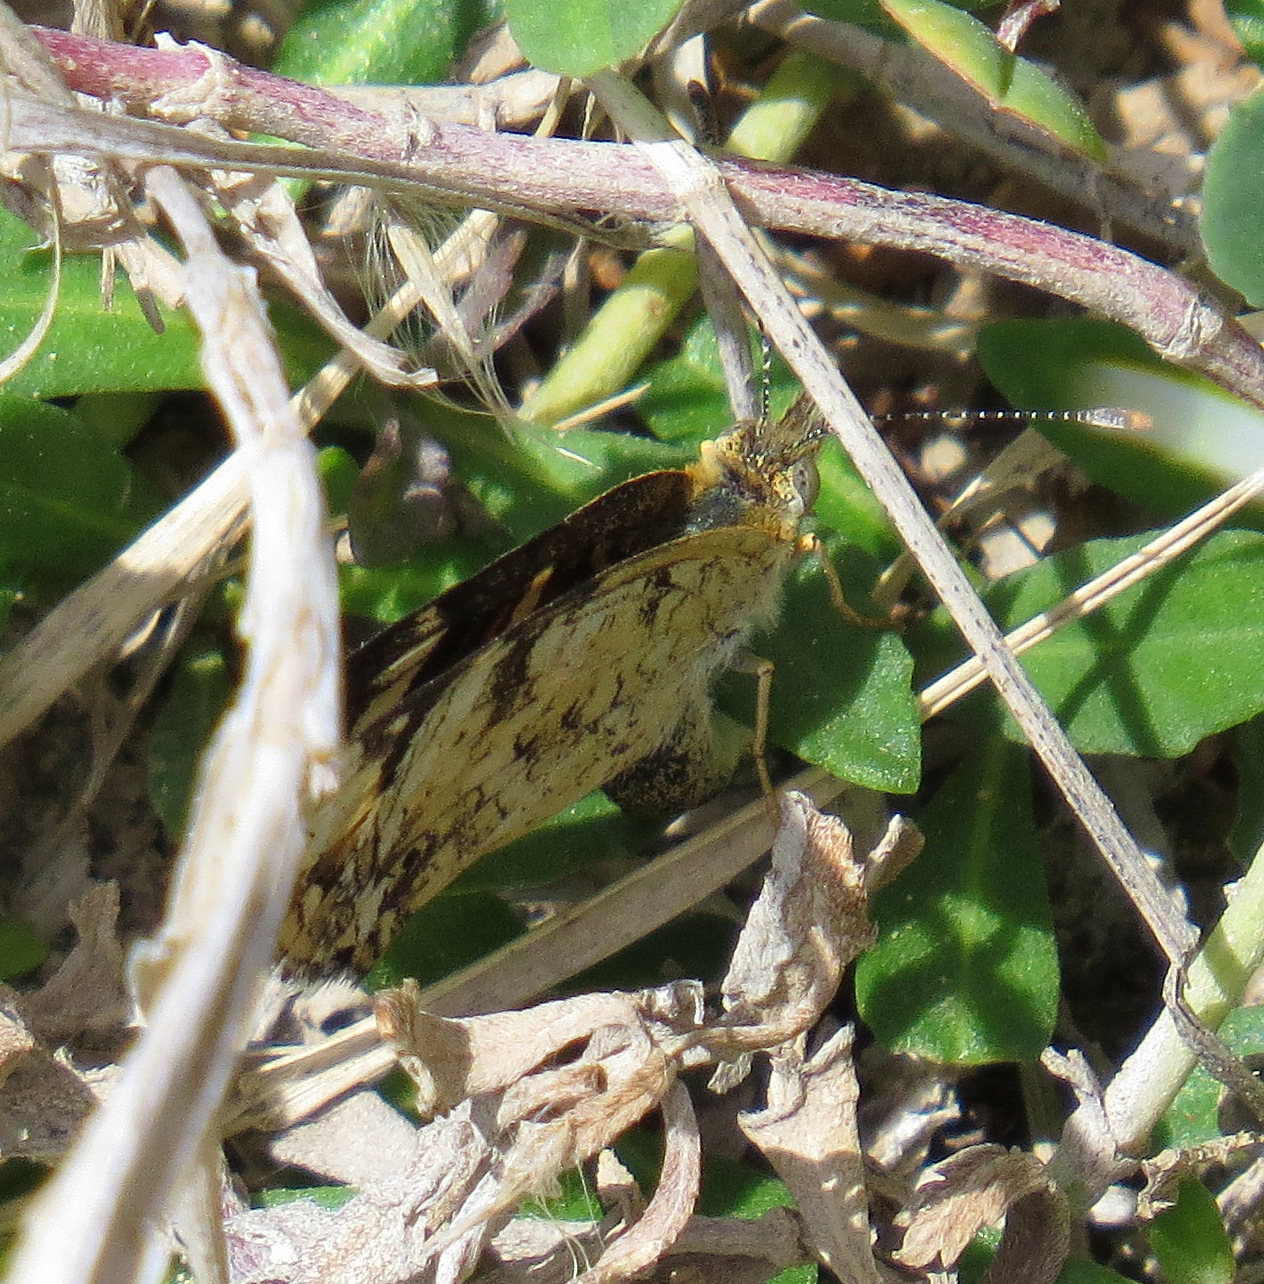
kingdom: Animalia
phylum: Arthropoda
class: Insecta
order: Lepidoptera
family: Nymphalidae
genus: Phyciodes
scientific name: Phyciodes picta
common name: Painted crescent
